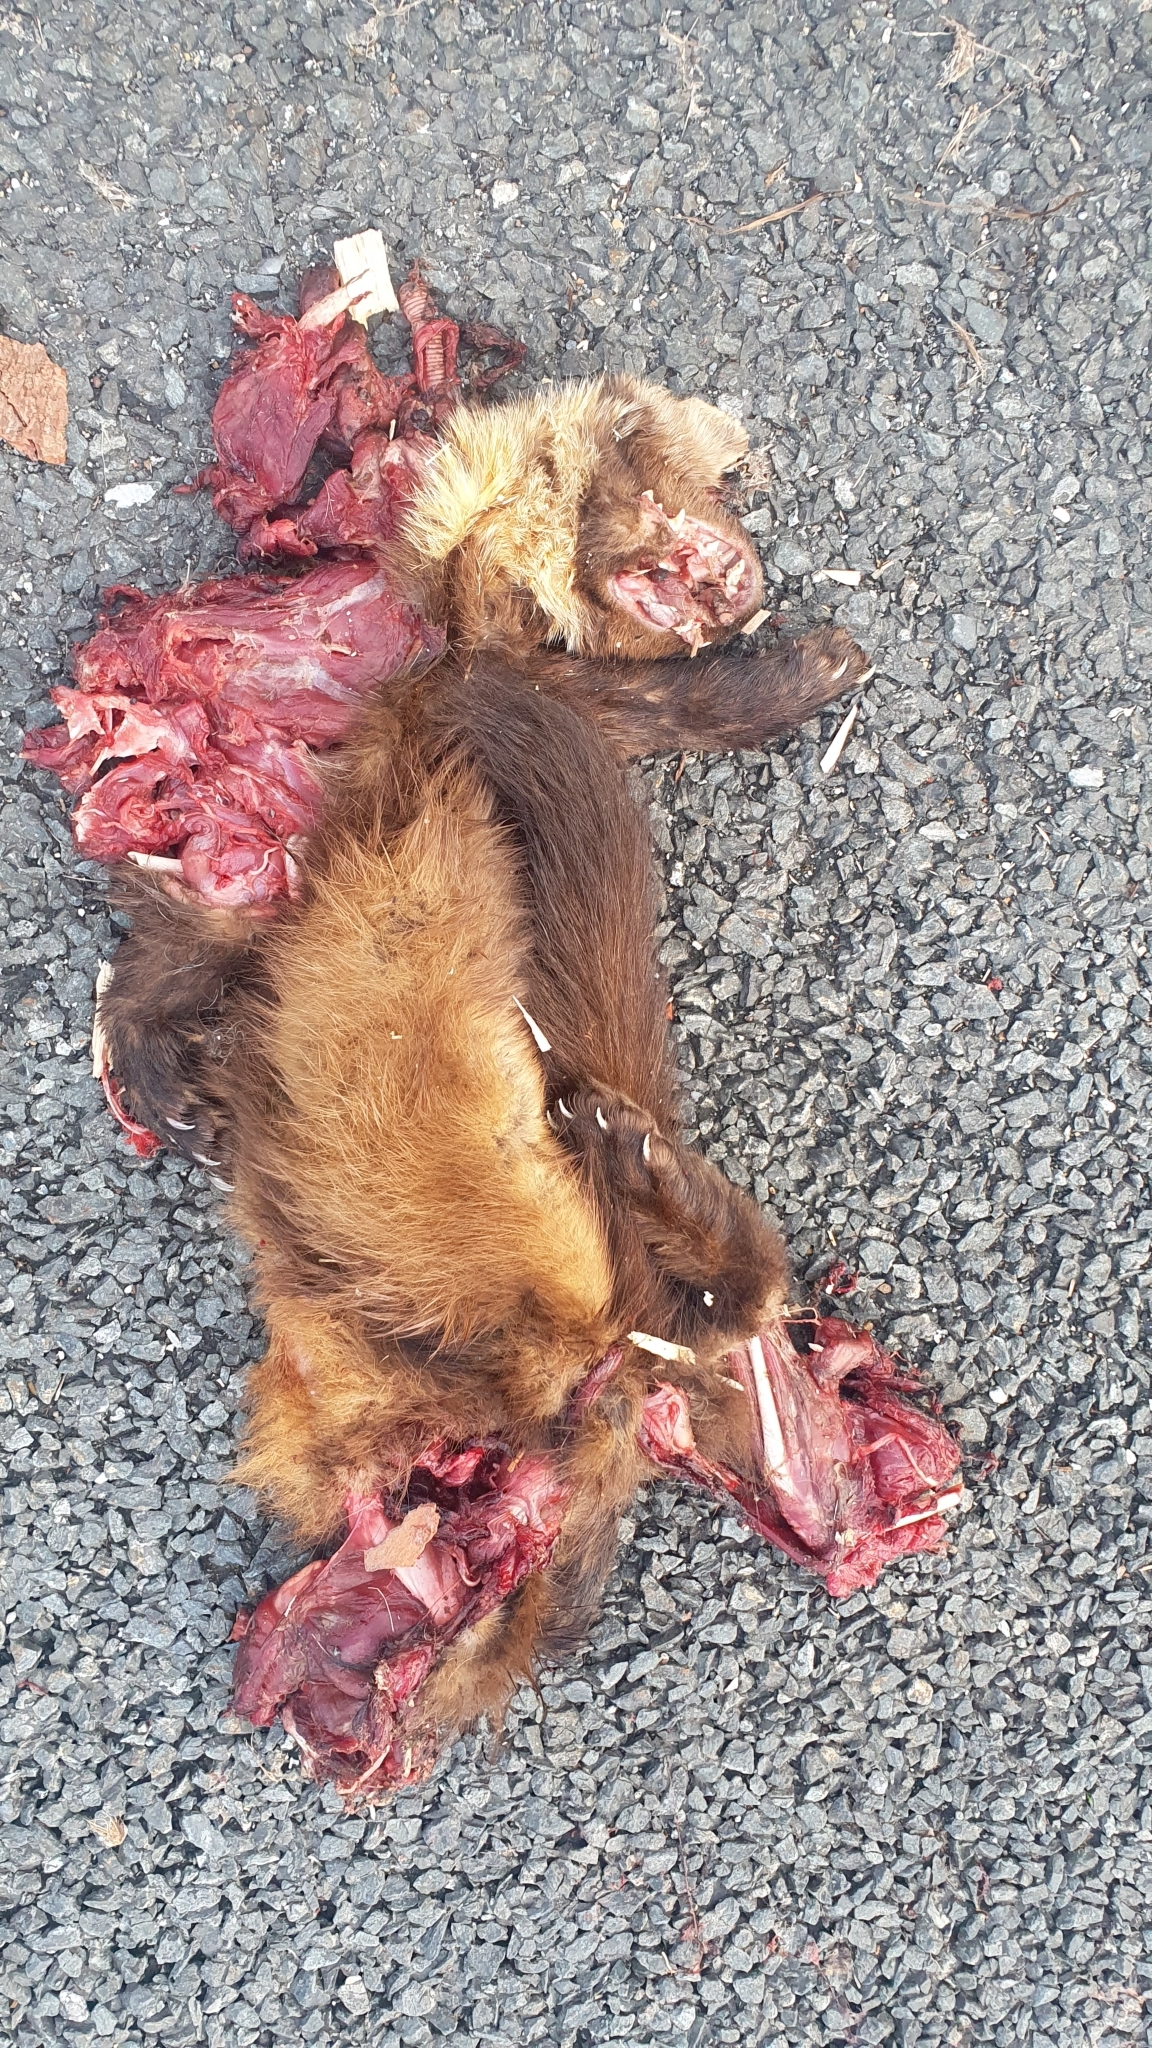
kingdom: Animalia
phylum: Chordata
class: Mammalia
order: Carnivora
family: Mustelidae
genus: Martes
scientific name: Martes martes
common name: European pine marten
